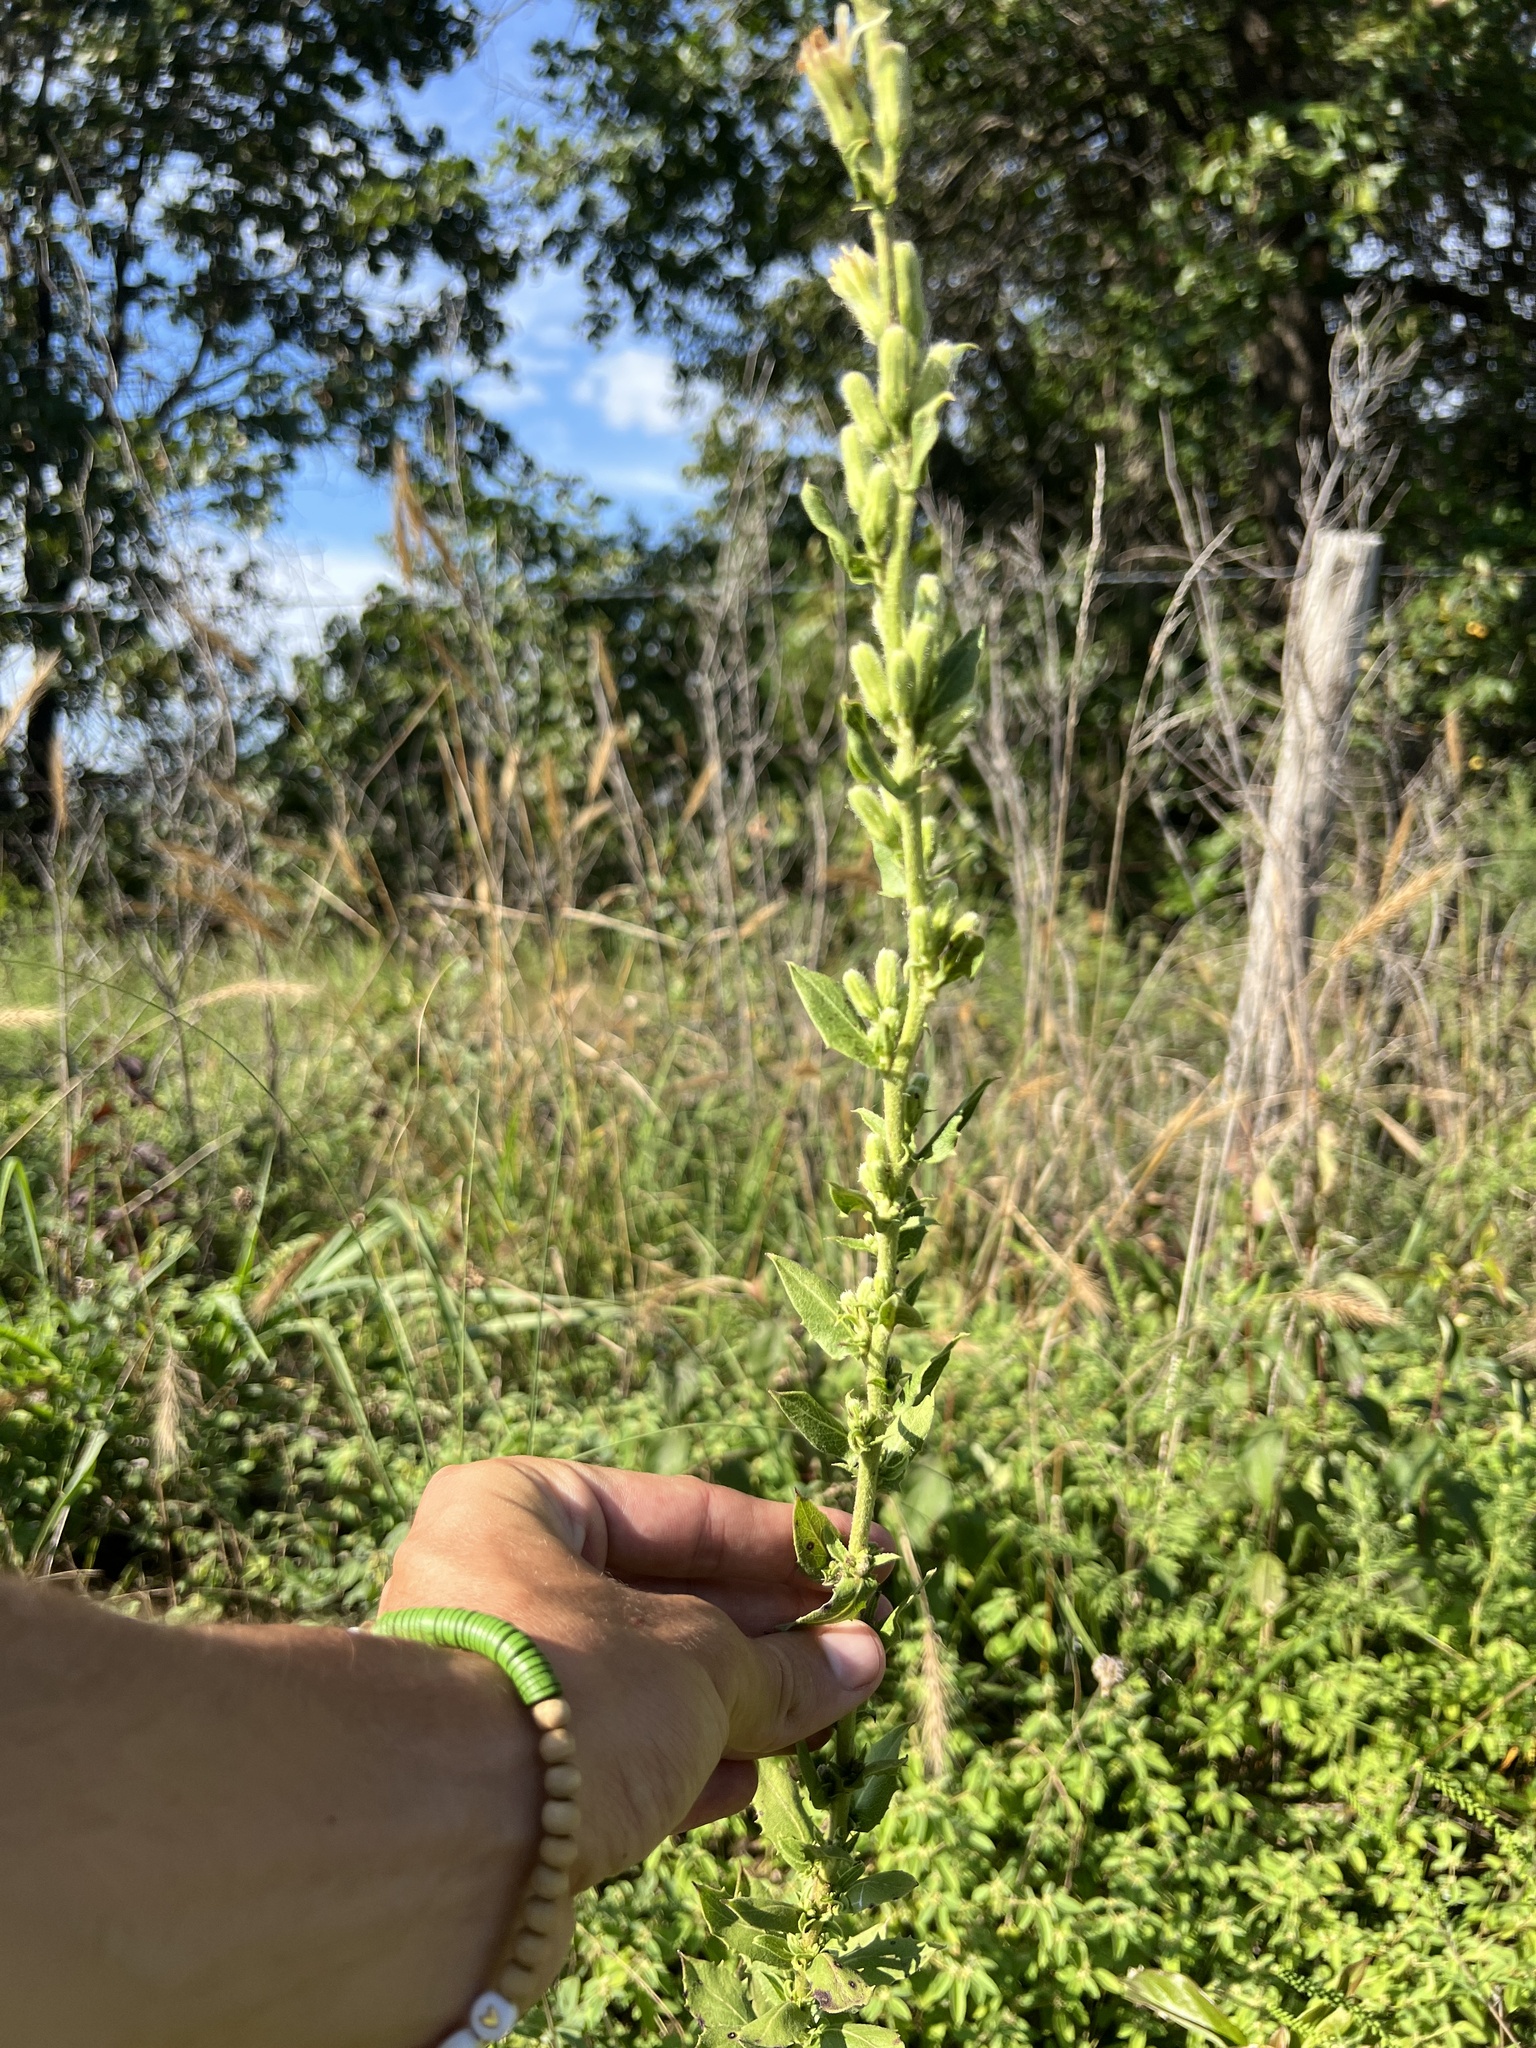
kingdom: Plantae
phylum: Tracheophyta
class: Magnoliopsida
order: Asterales
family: Asteraceae
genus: Nabalus
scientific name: Nabalus asper
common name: Rough rattlesnakeroot
